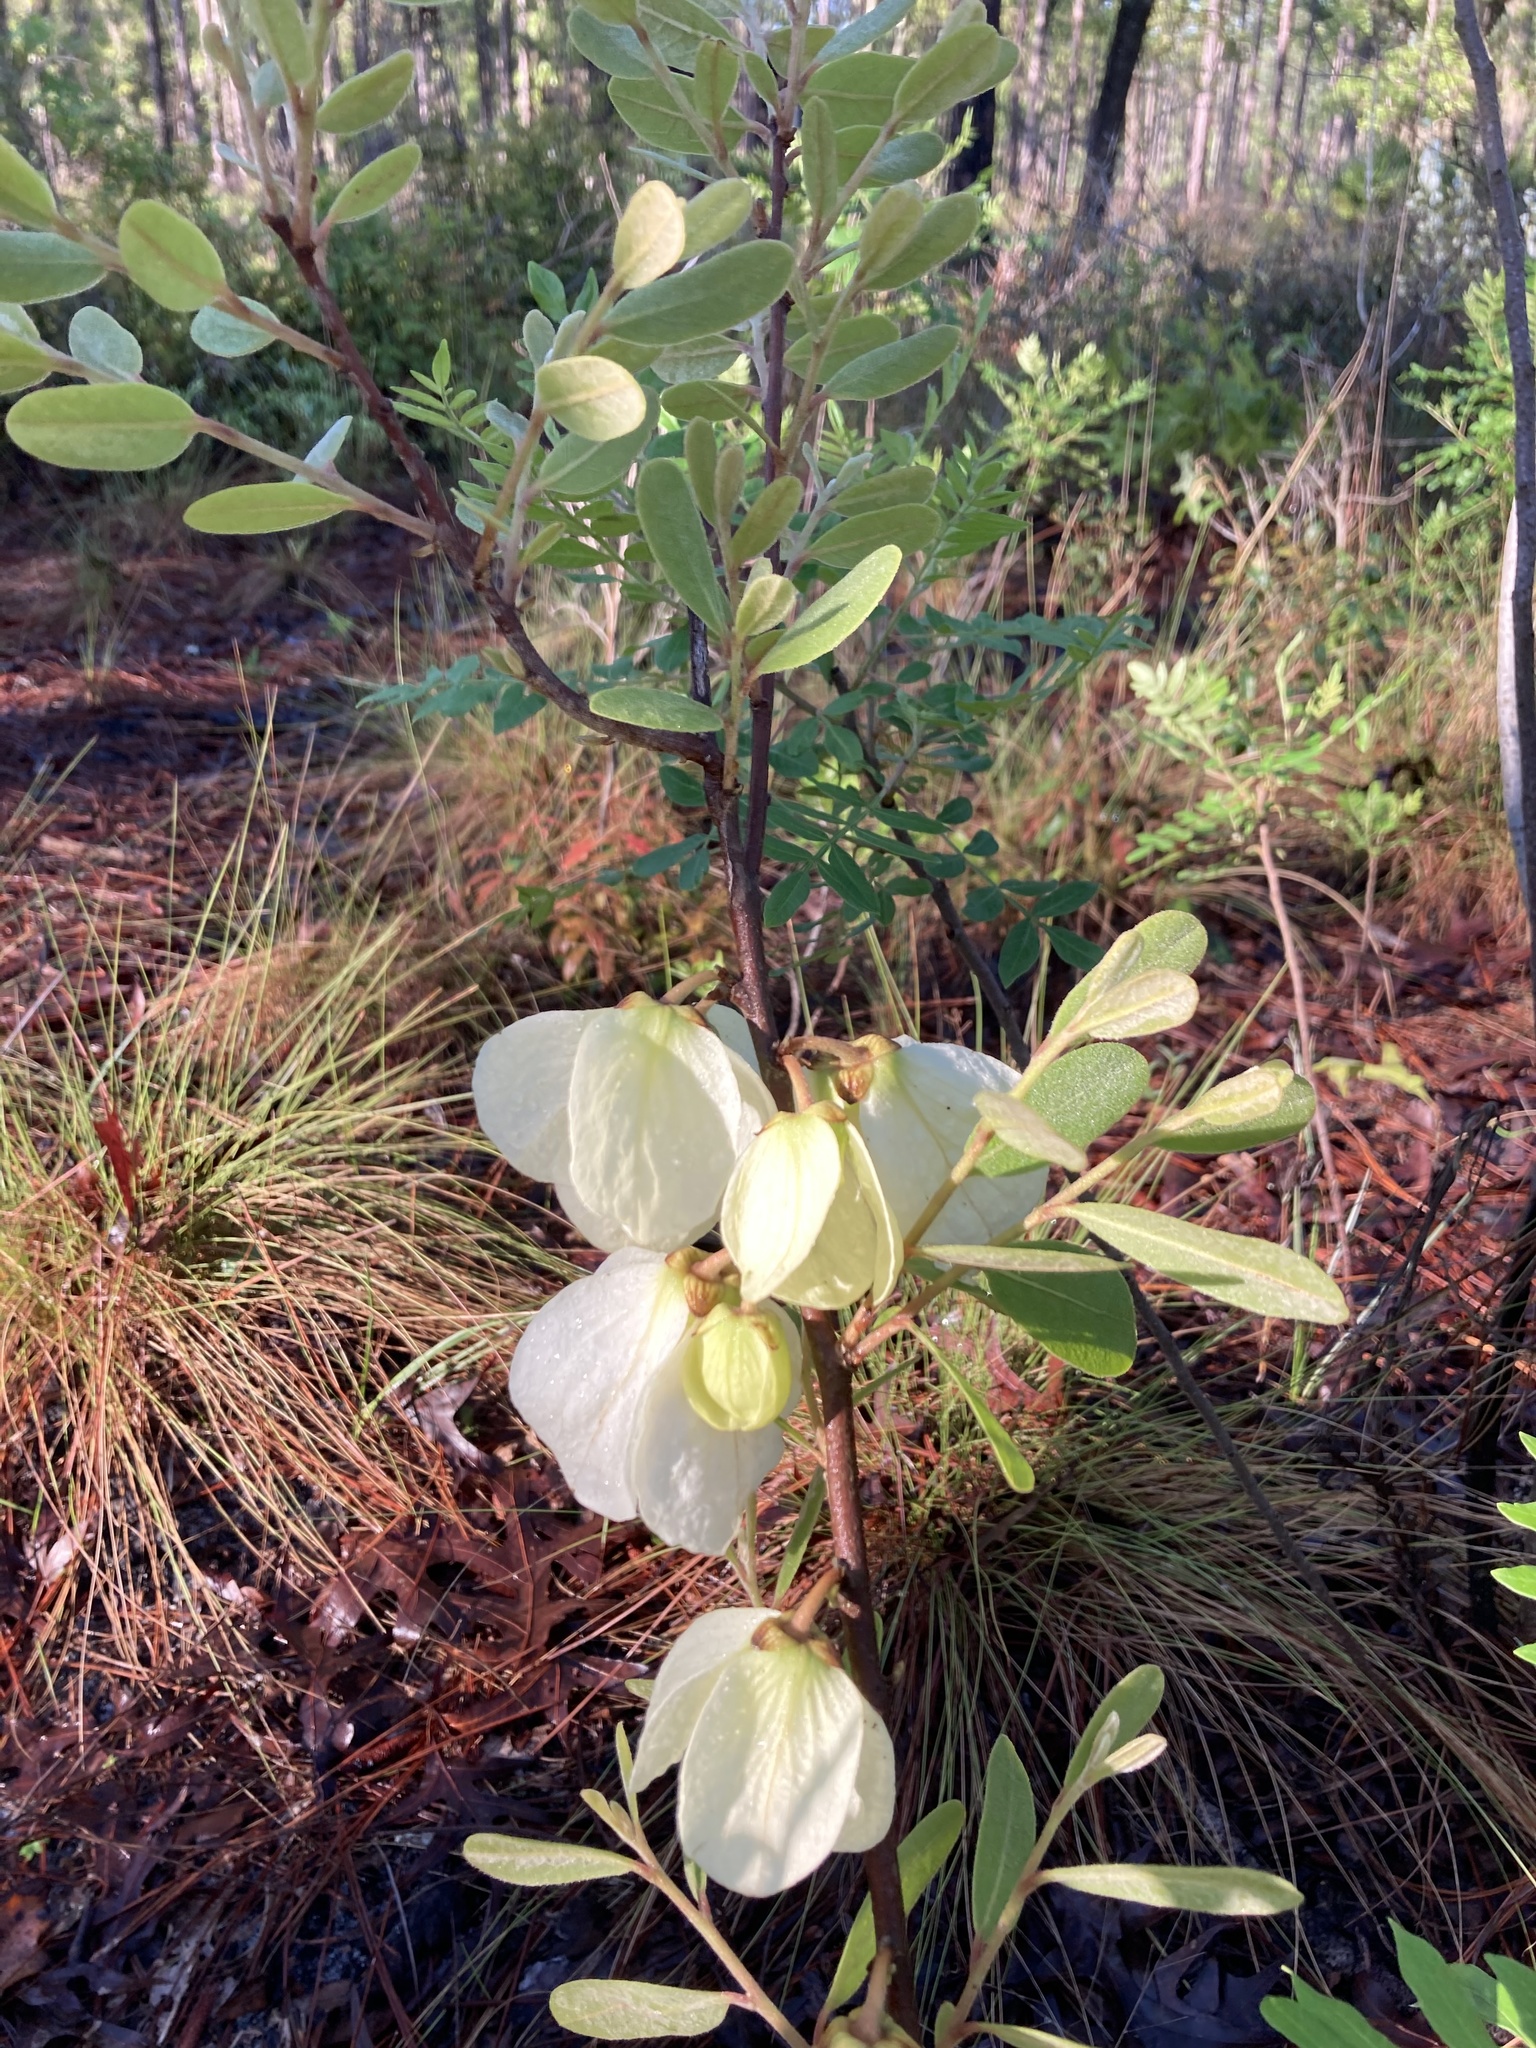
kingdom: Plantae
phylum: Tracheophyta
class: Magnoliopsida
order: Magnoliales
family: Annonaceae
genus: Asimina
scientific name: Asimina speciosa
